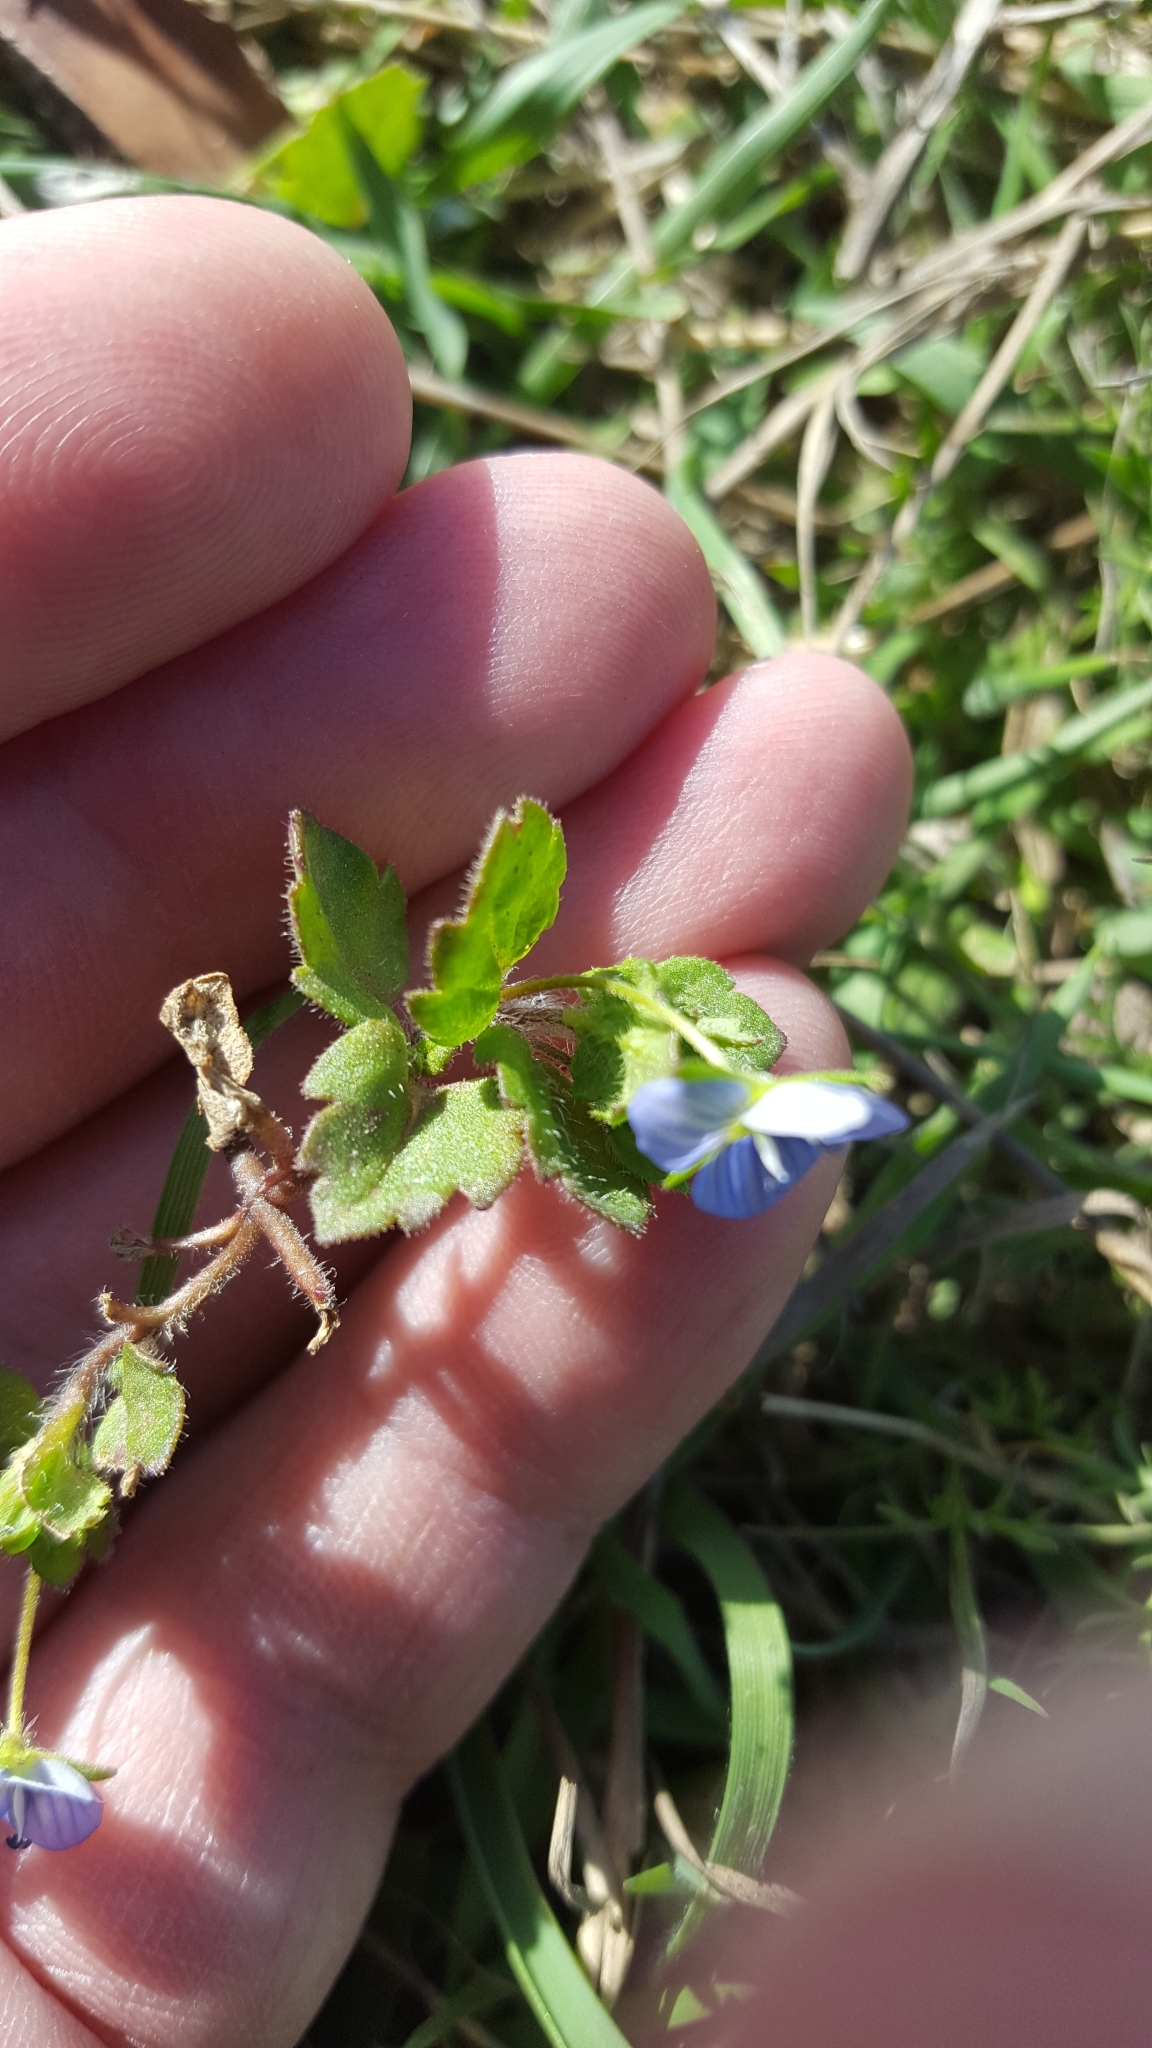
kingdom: Plantae
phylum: Tracheophyta
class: Magnoliopsida
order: Lamiales
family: Plantaginaceae
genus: Veronica
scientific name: Veronica persica
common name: Common field-speedwell
